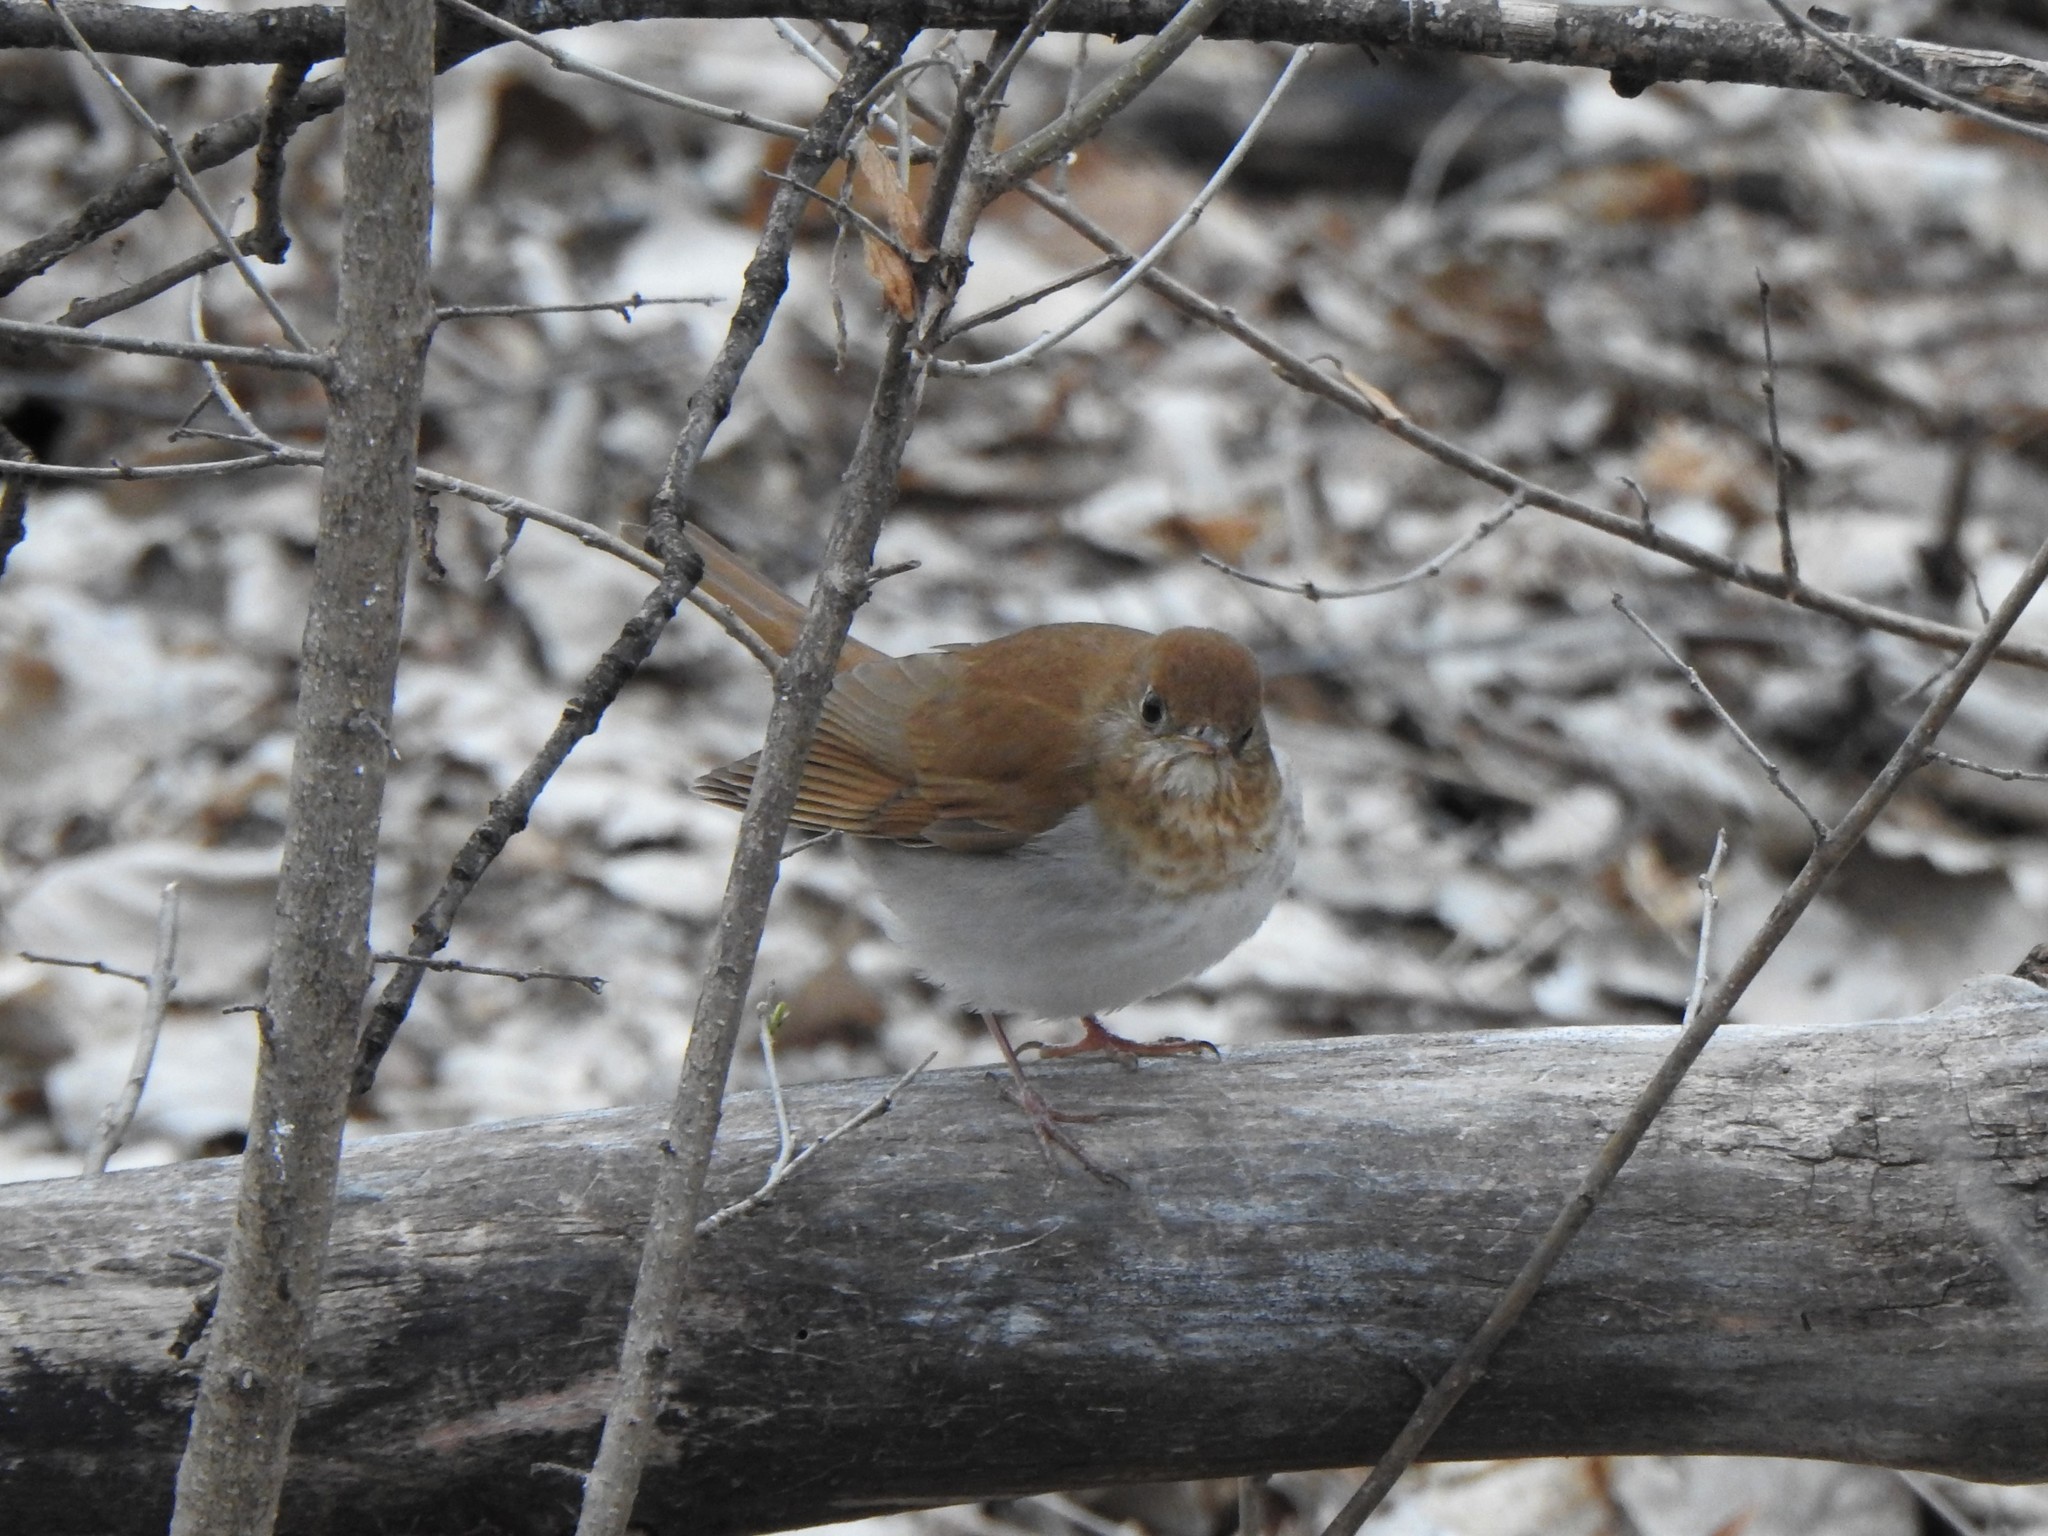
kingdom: Animalia
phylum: Chordata
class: Aves
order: Passeriformes
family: Turdidae
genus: Catharus
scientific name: Catharus fuscescens
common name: Veery
